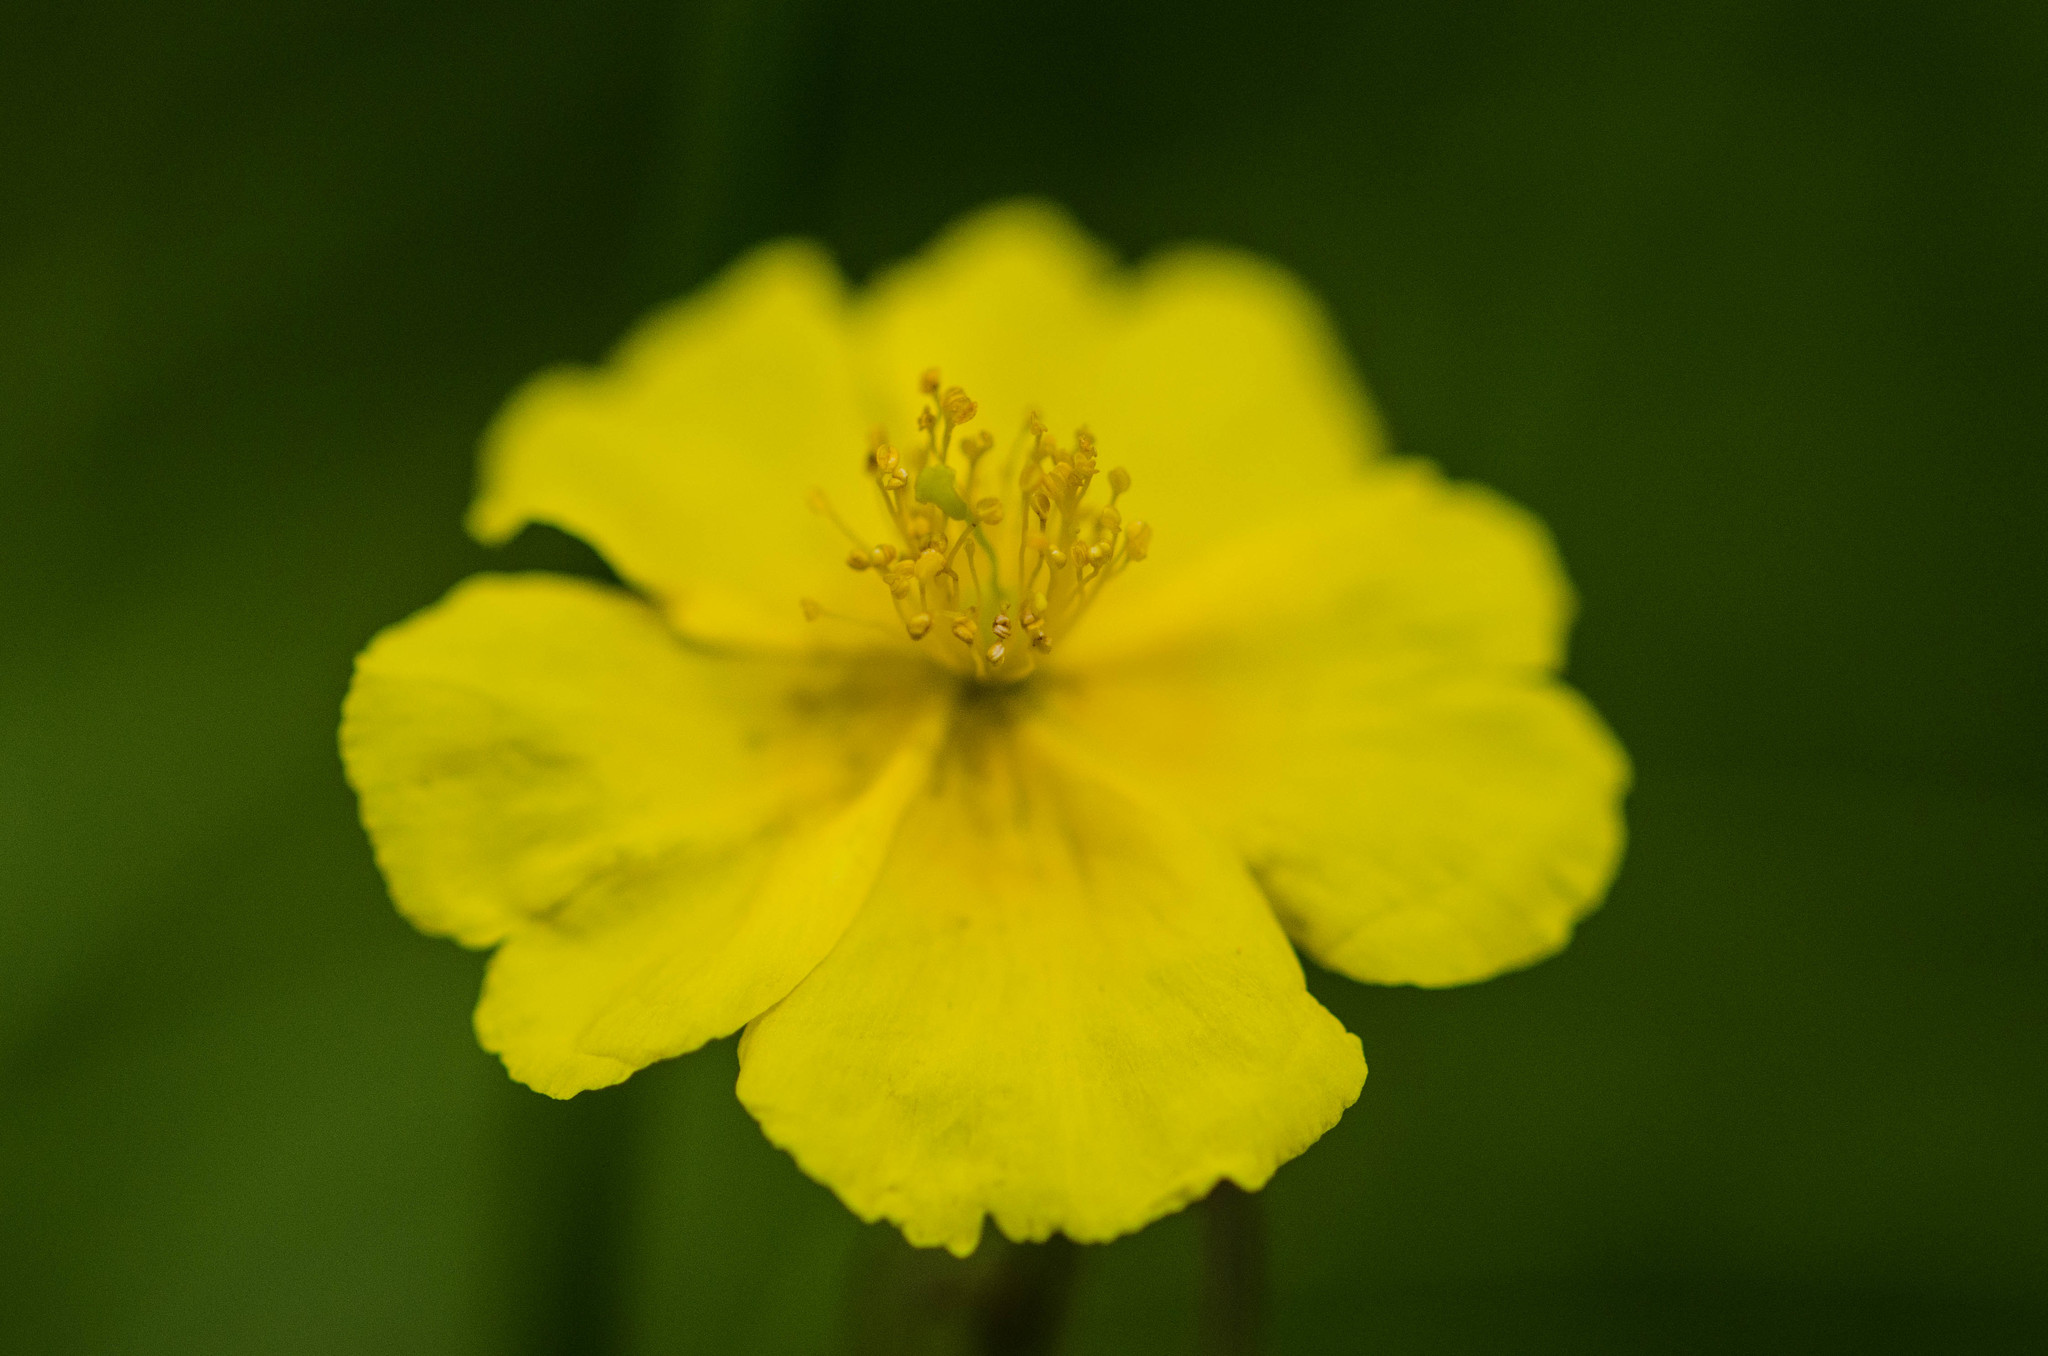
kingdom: Plantae
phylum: Tracheophyta
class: Magnoliopsida
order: Malvales
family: Cistaceae
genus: Helianthemum
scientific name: Helianthemum nummularium
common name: Common rock-rose
